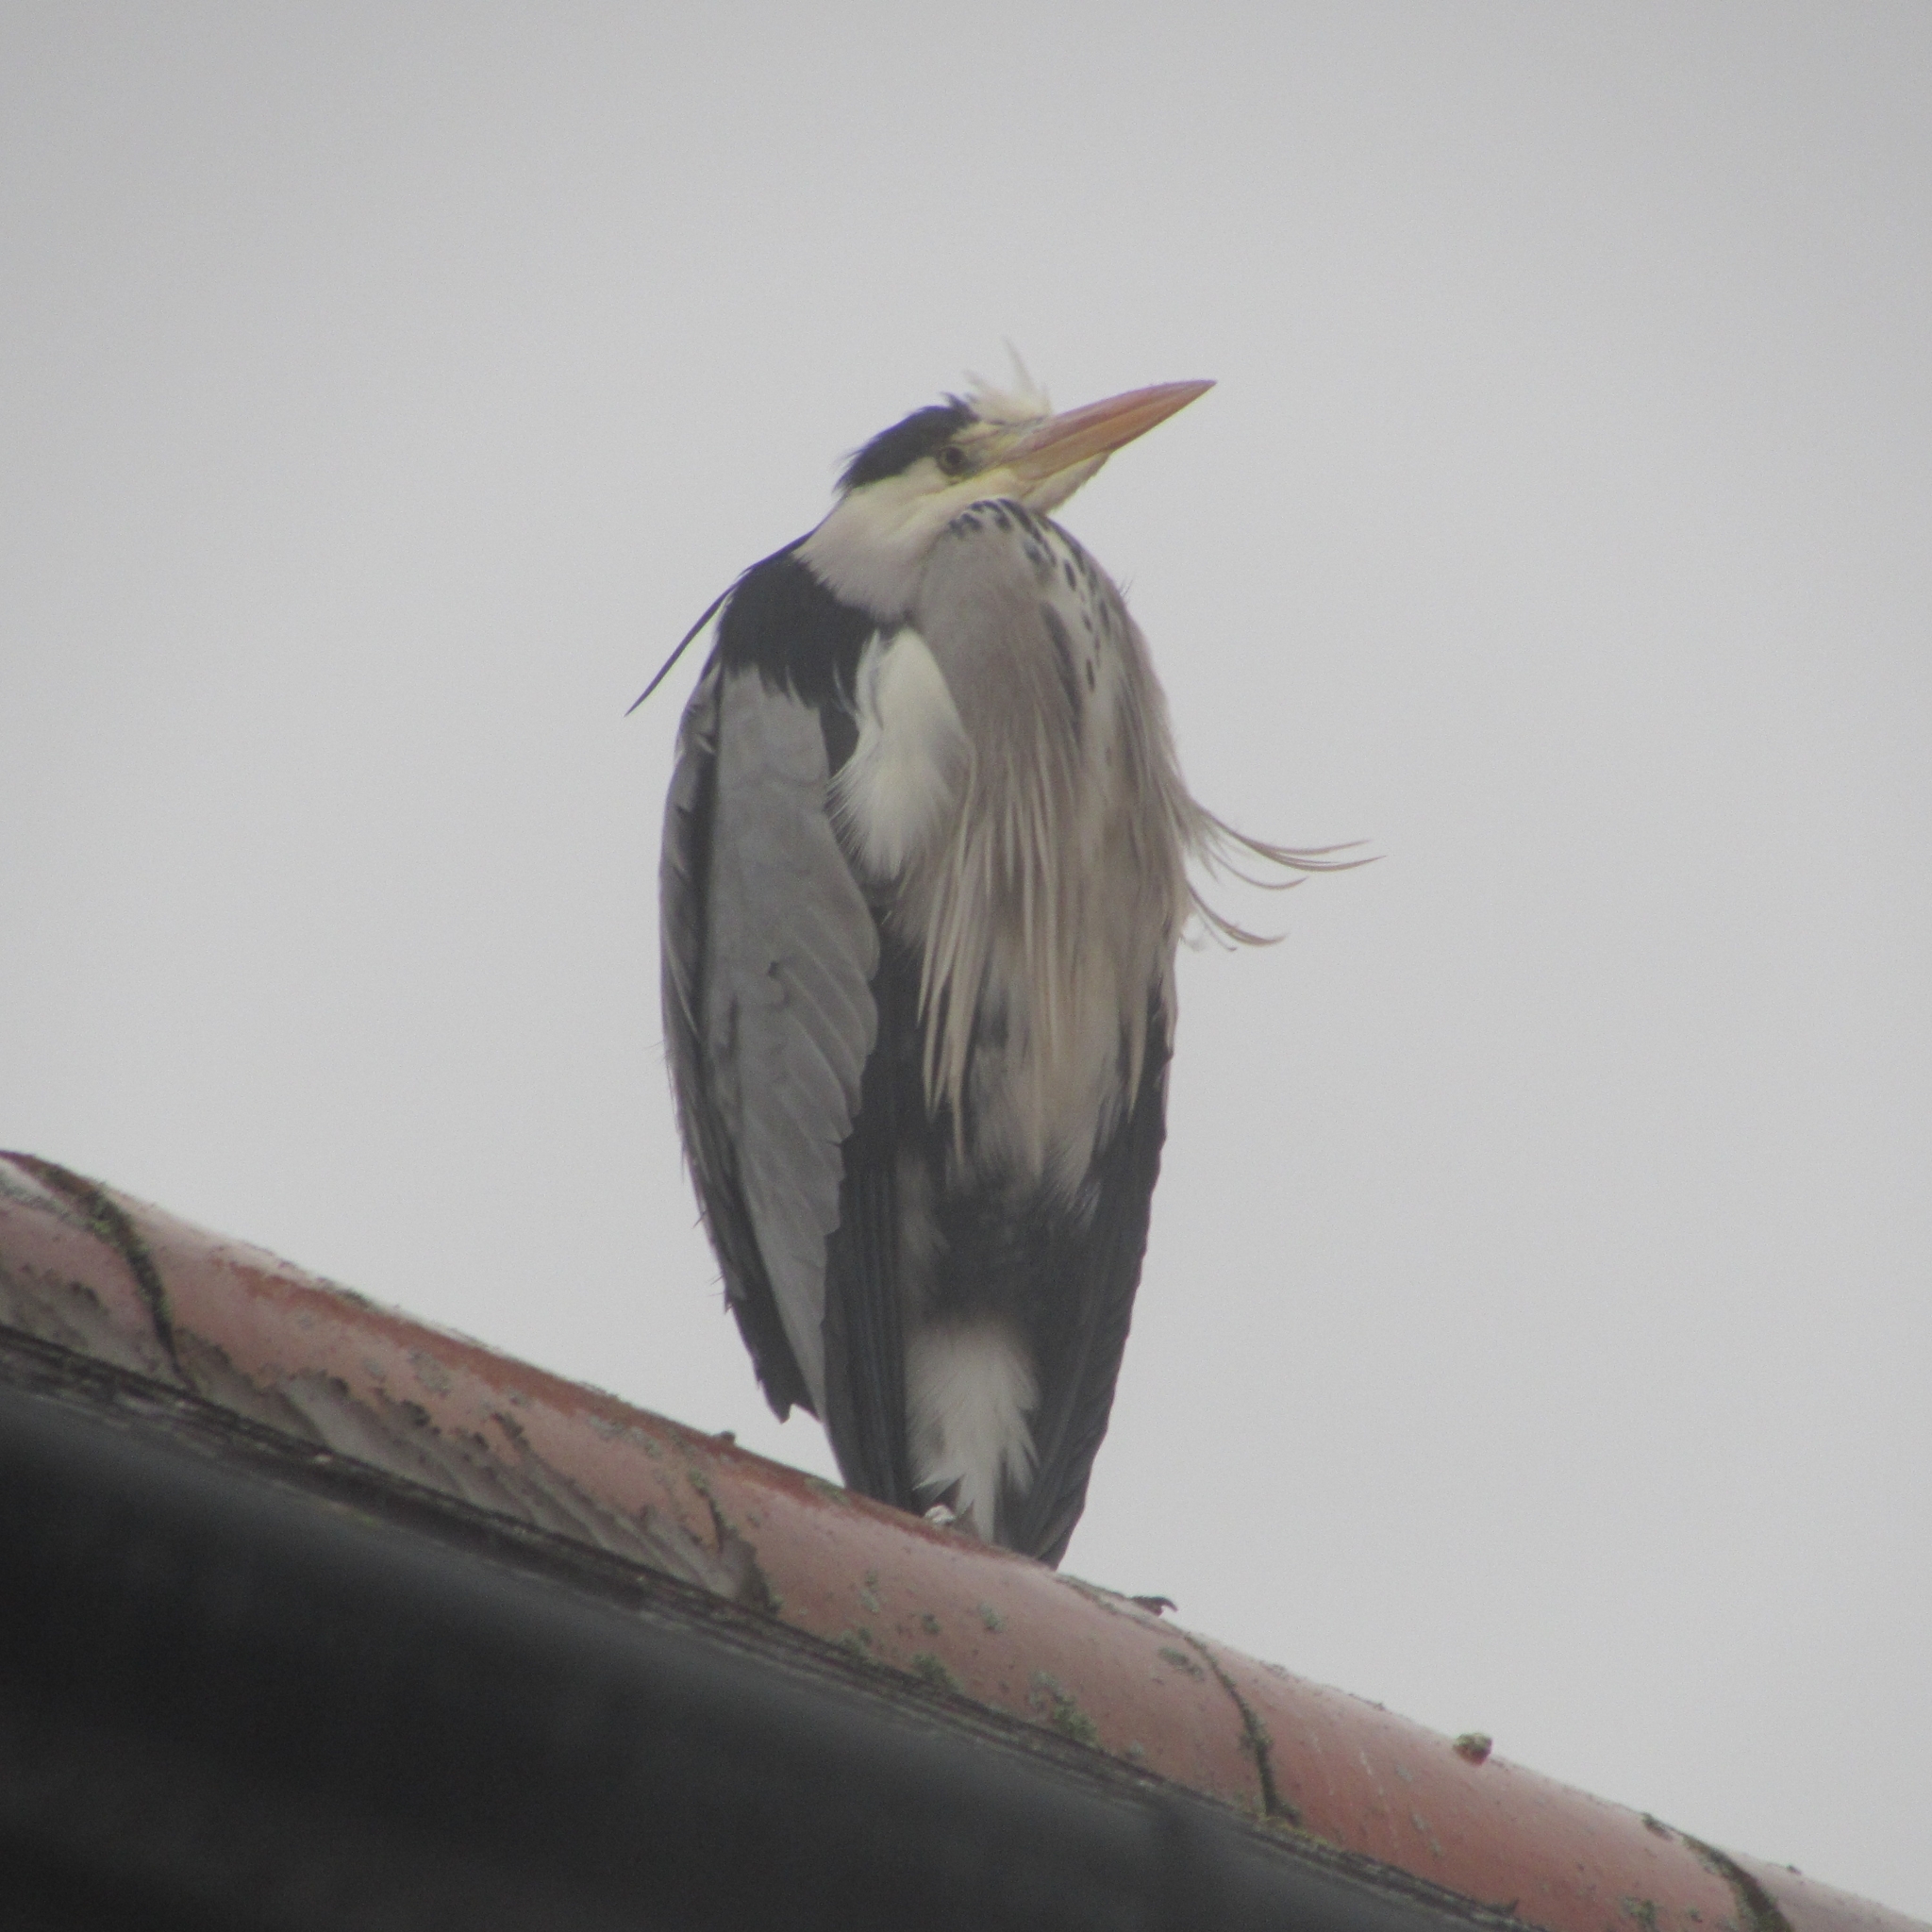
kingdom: Animalia
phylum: Chordata
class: Aves
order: Pelecaniformes
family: Ardeidae
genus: Ardea
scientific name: Ardea cinerea
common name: Grey heron
